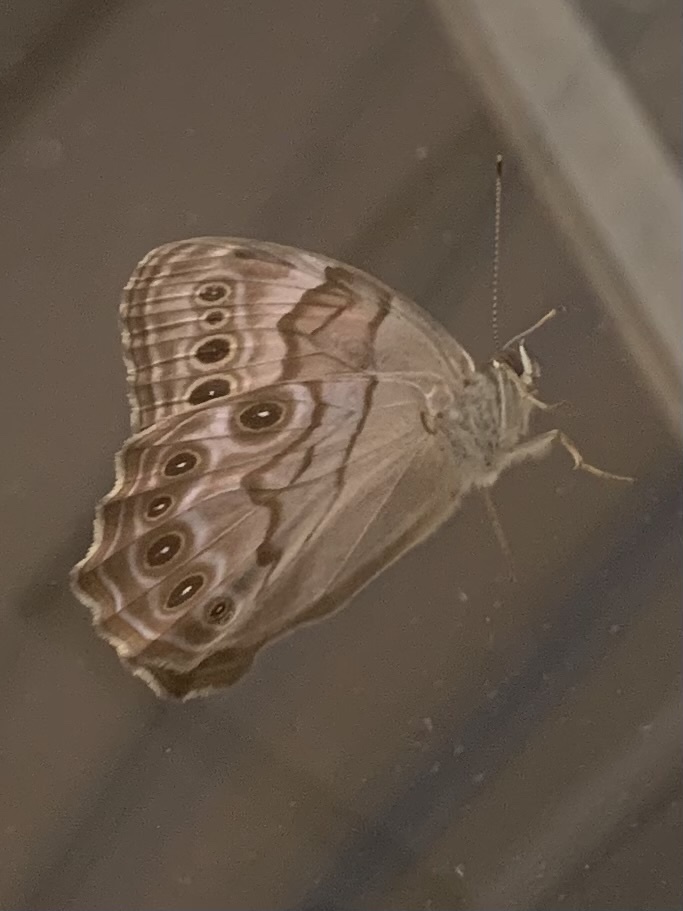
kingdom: Animalia
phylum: Arthropoda
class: Insecta
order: Lepidoptera
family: Nymphalidae
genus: Lethe
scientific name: Lethe anthedon
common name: Northern pearly-eye
